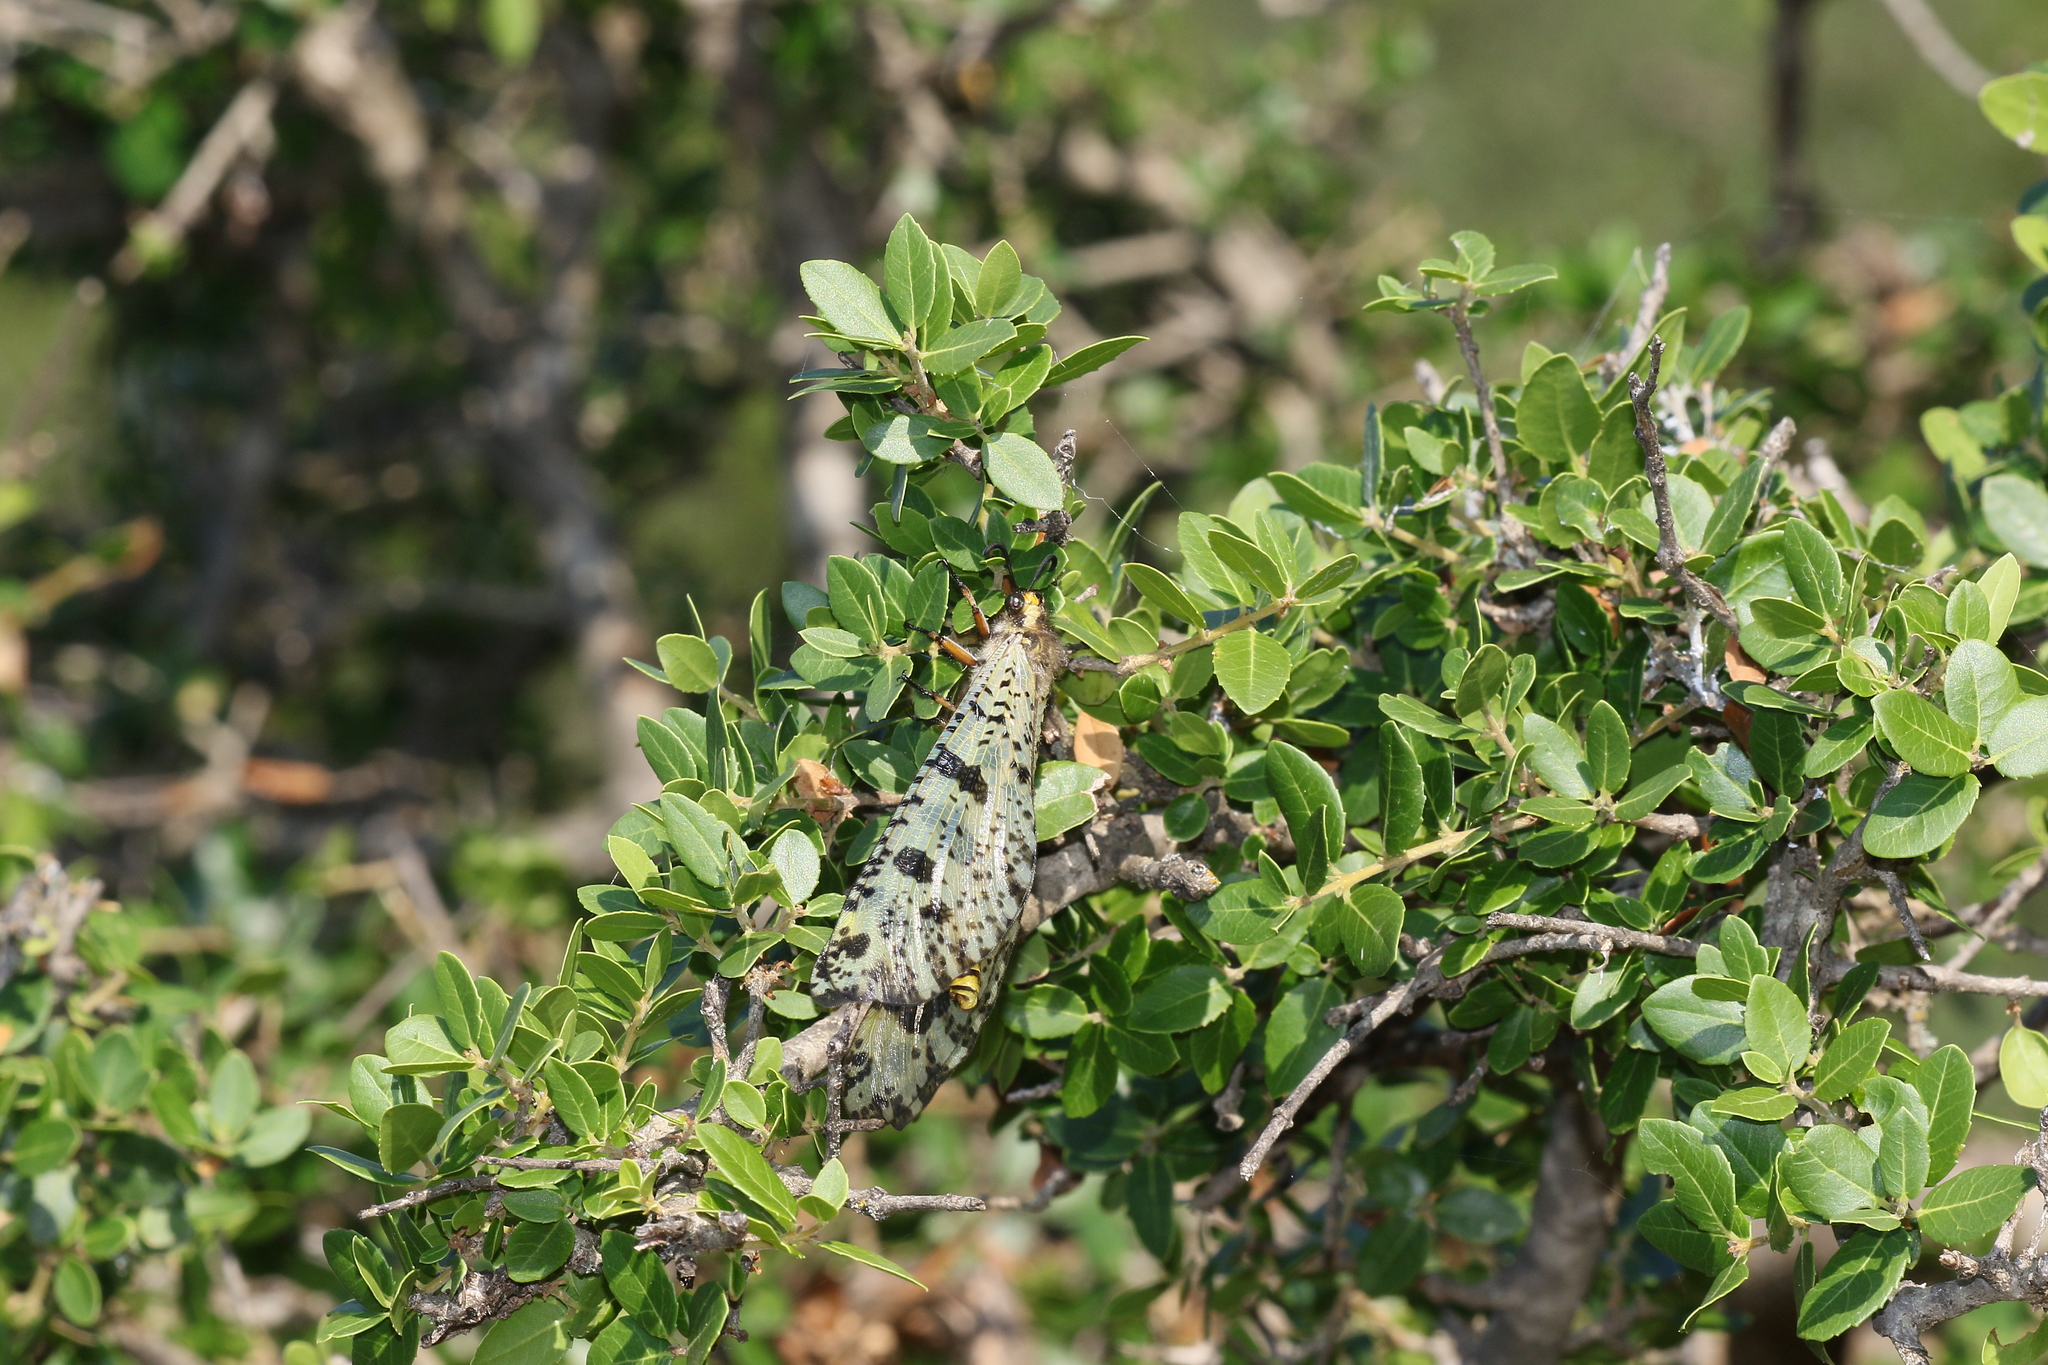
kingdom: Animalia
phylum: Arthropoda
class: Insecta
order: Neuroptera
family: Myrmeleontidae
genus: Palpares
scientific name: Palpares libelluloides
